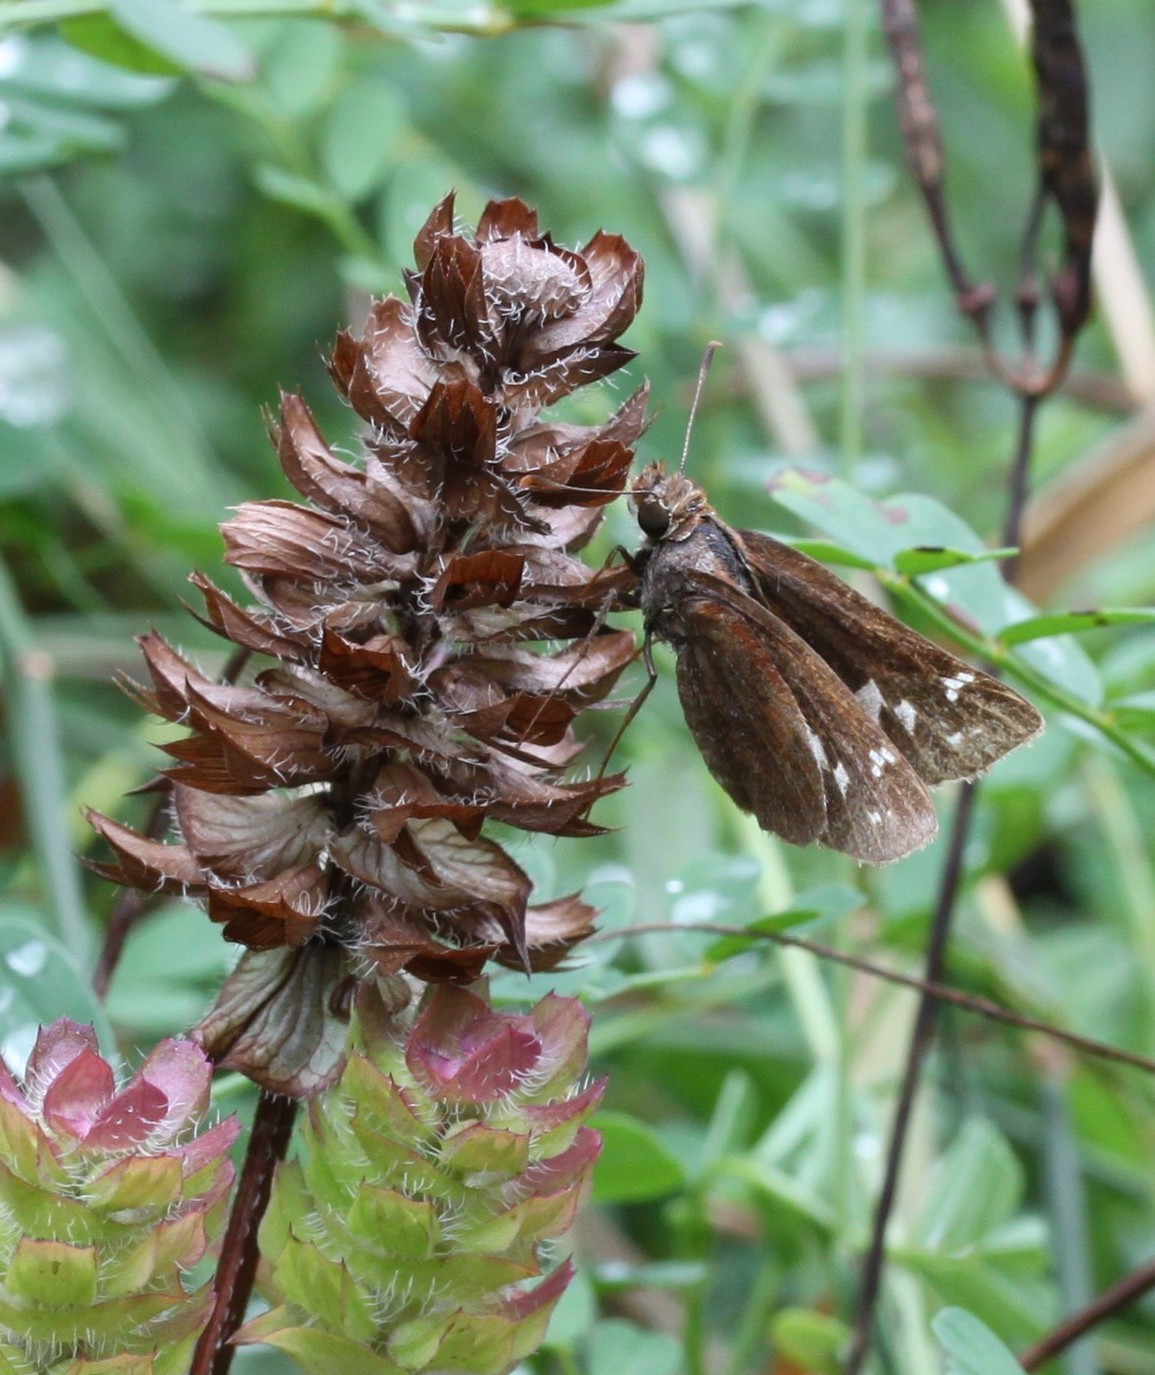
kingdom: Animalia
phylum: Arthropoda
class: Insecta
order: Lepidoptera
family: Hesperiidae
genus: Lon
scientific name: Lon zabulon
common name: Zabulon skipper
